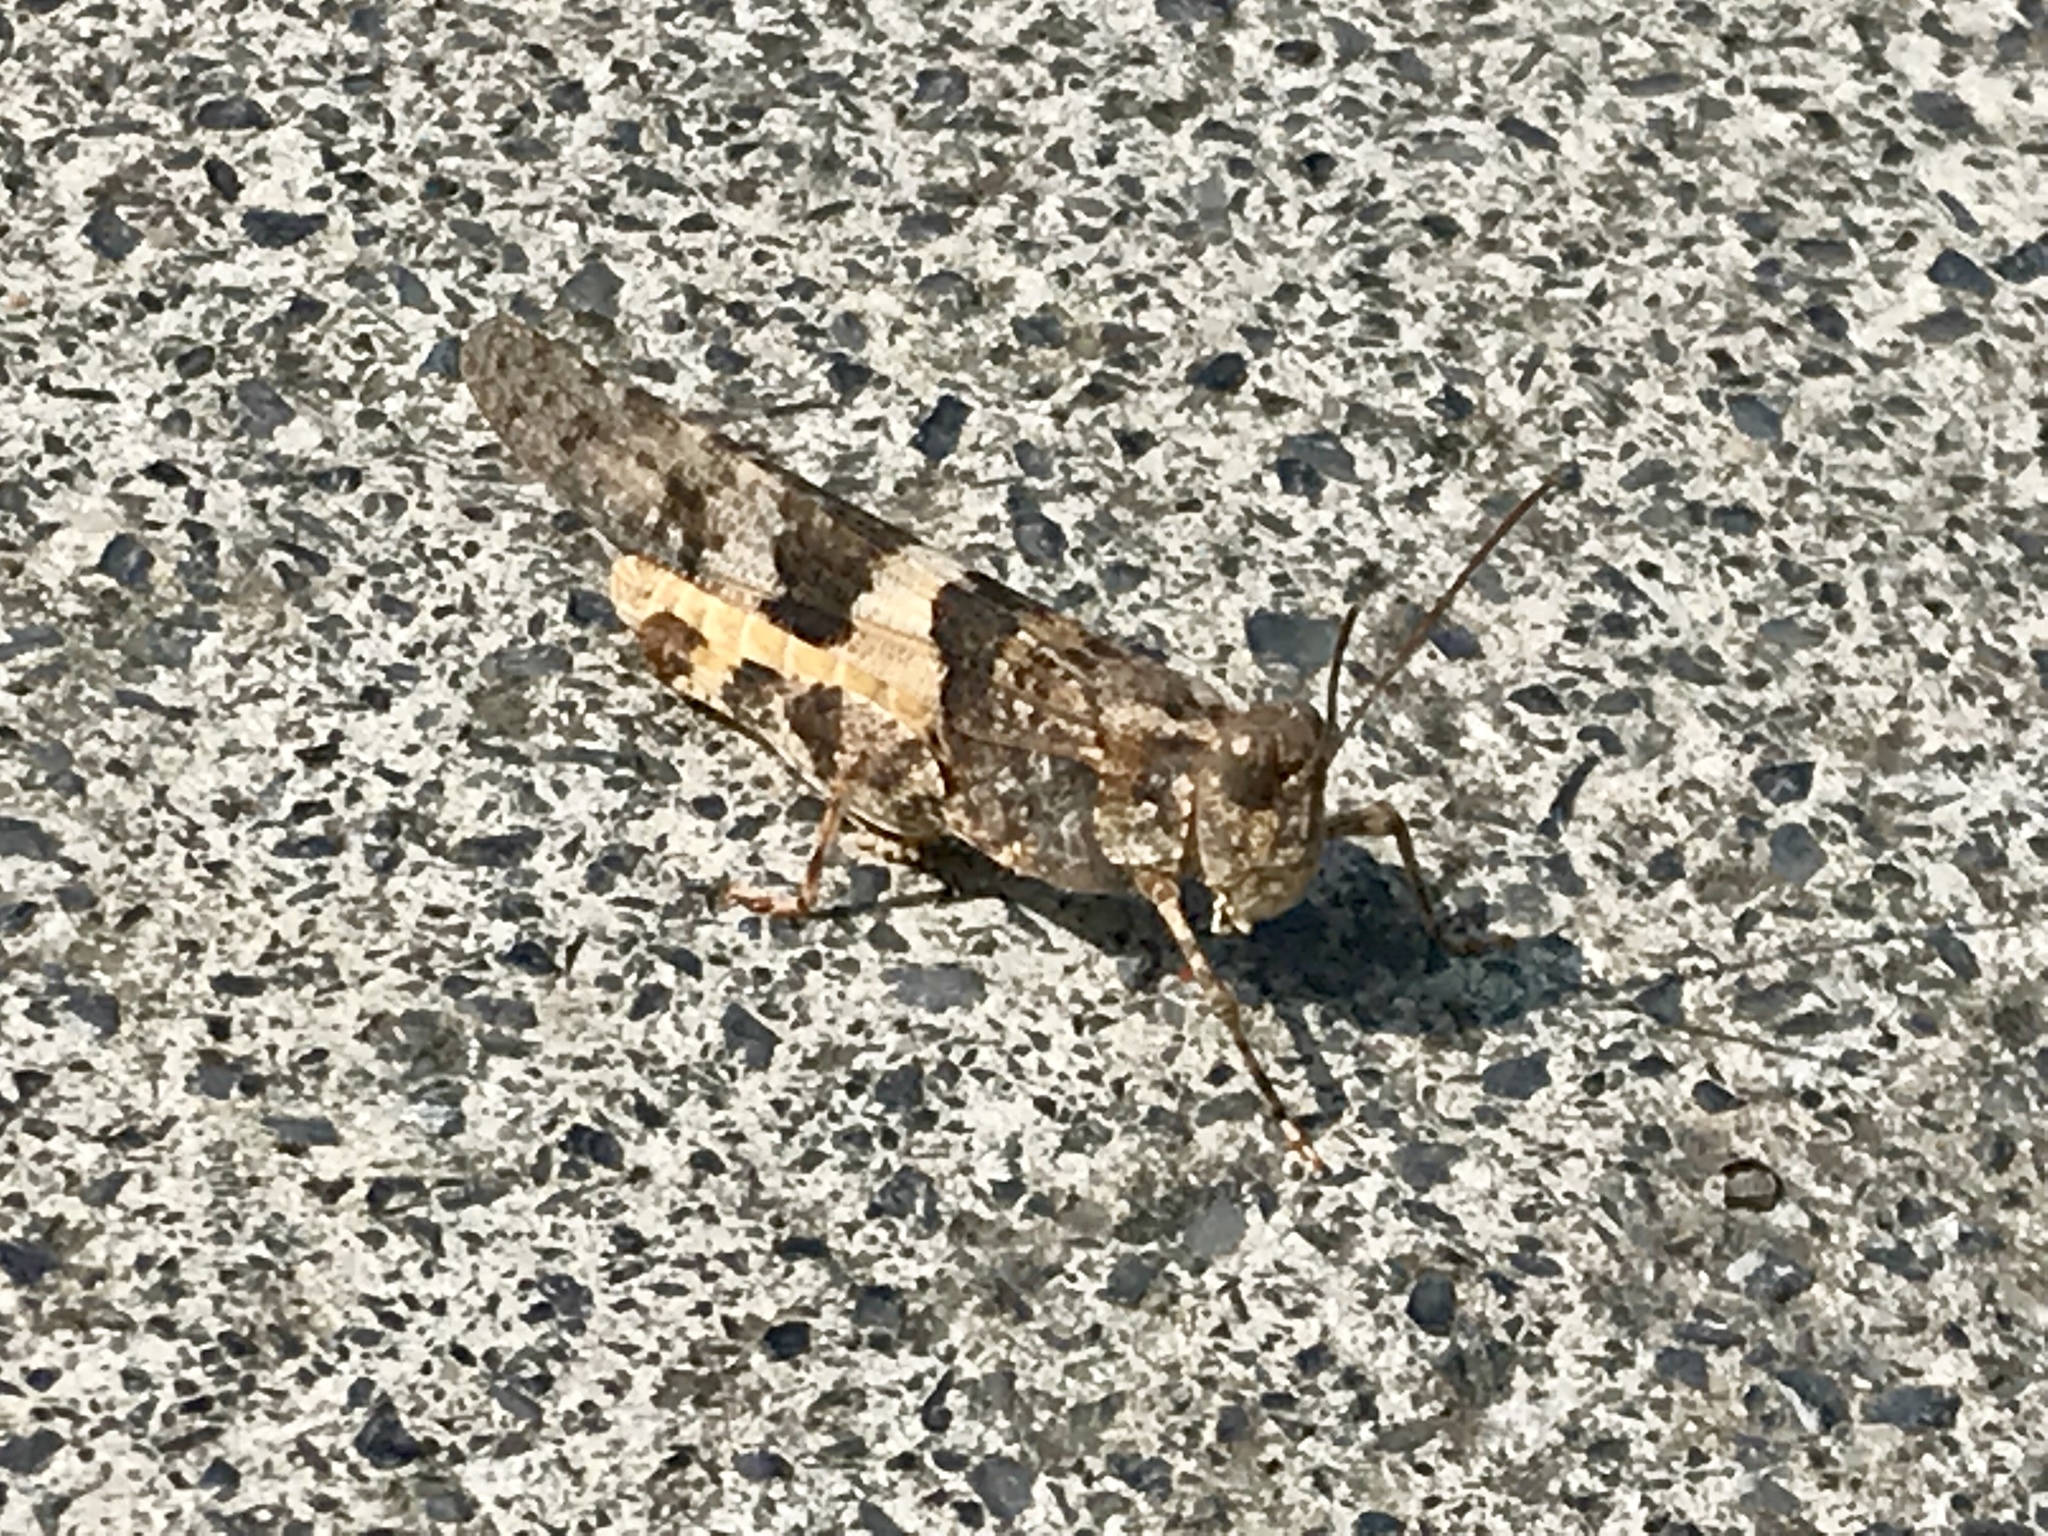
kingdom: Animalia
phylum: Arthropoda
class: Insecta
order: Orthoptera
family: Acrididae
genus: Trimerotropis
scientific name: Trimerotropis pallidipennis
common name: Pallid-winged grasshopper
